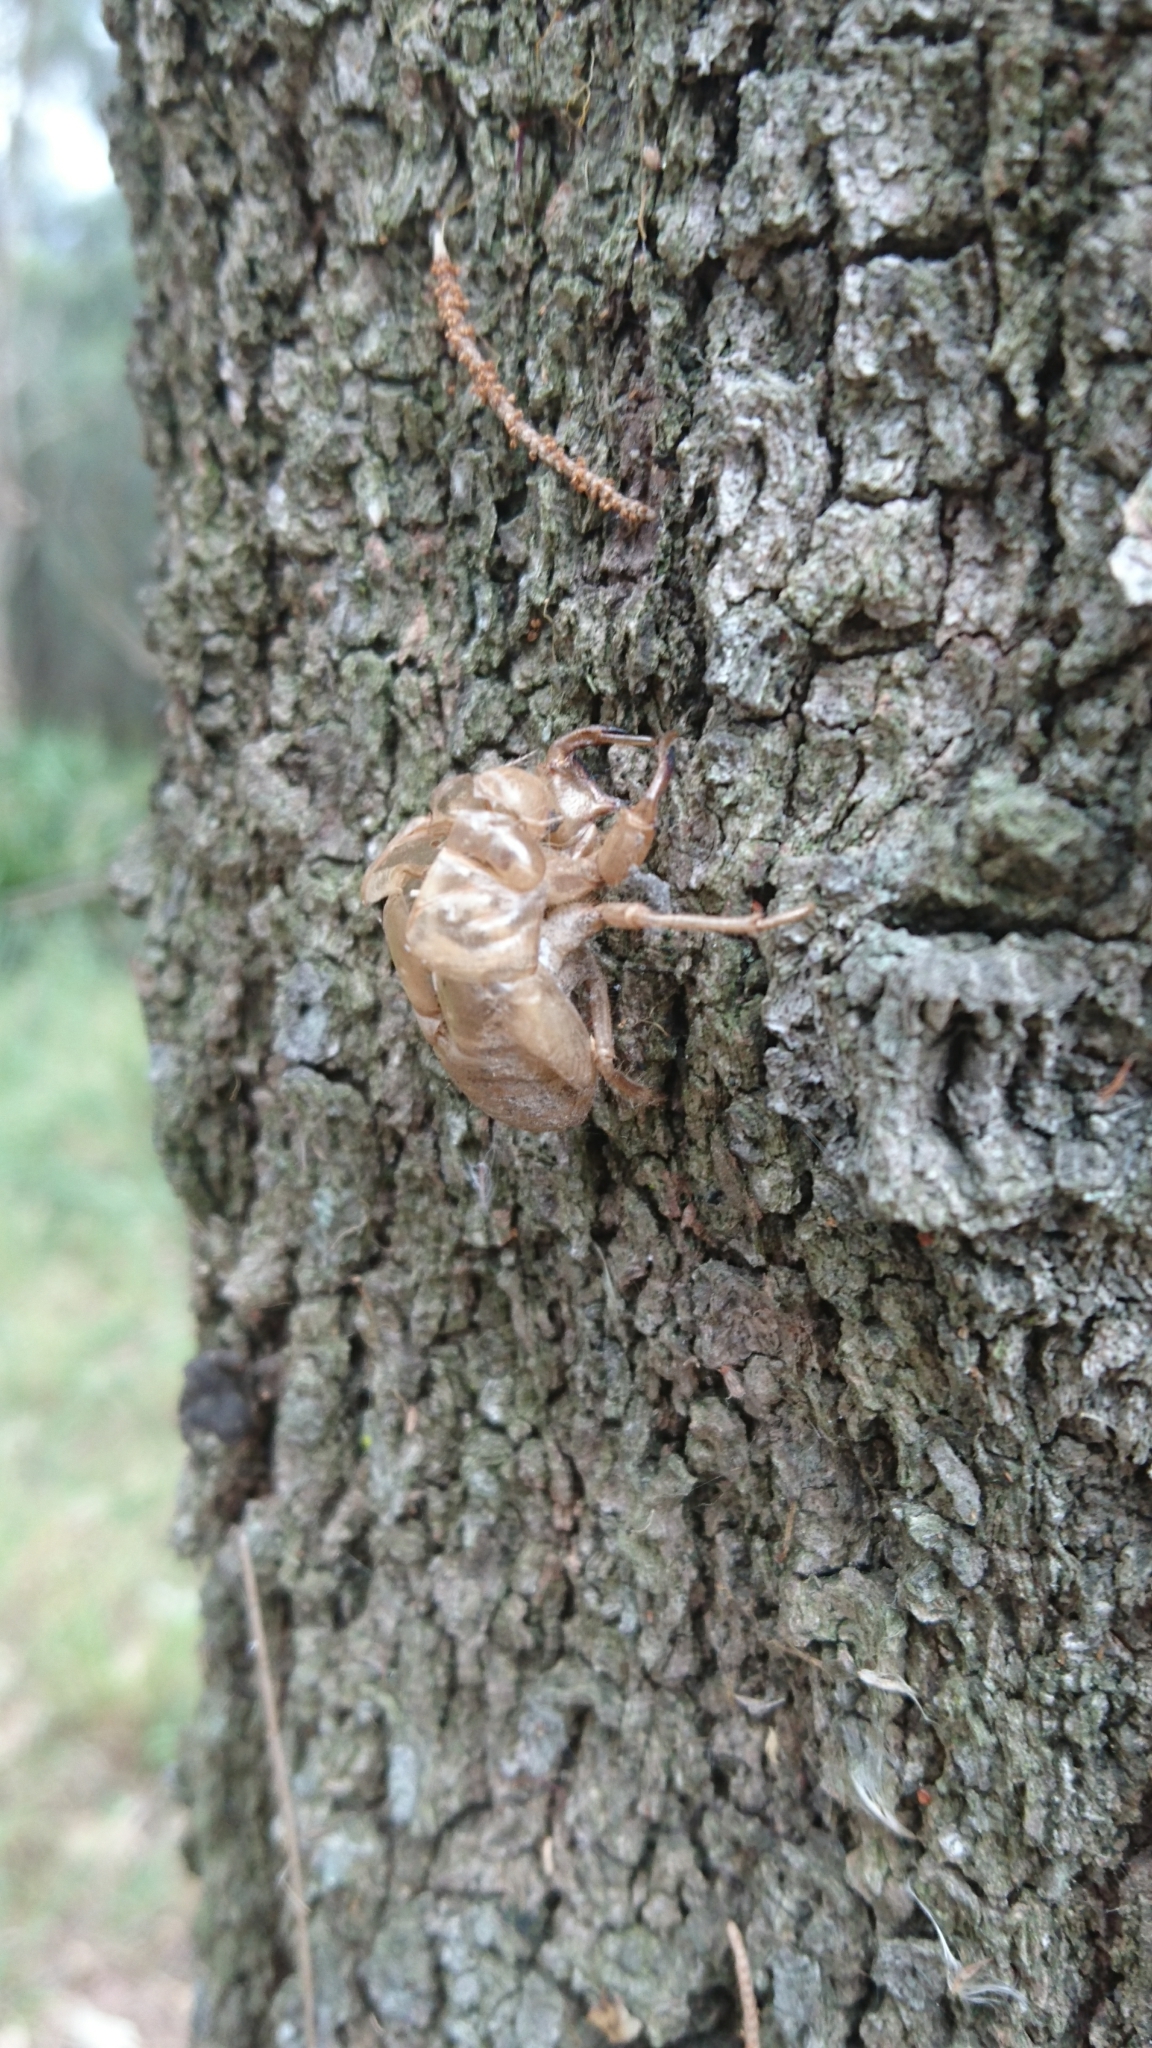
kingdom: Animalia
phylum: Arthropoda
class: Insecta
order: Hemiptera
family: Cicadidae
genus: Psaltoda
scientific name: Psaltoda plaga
